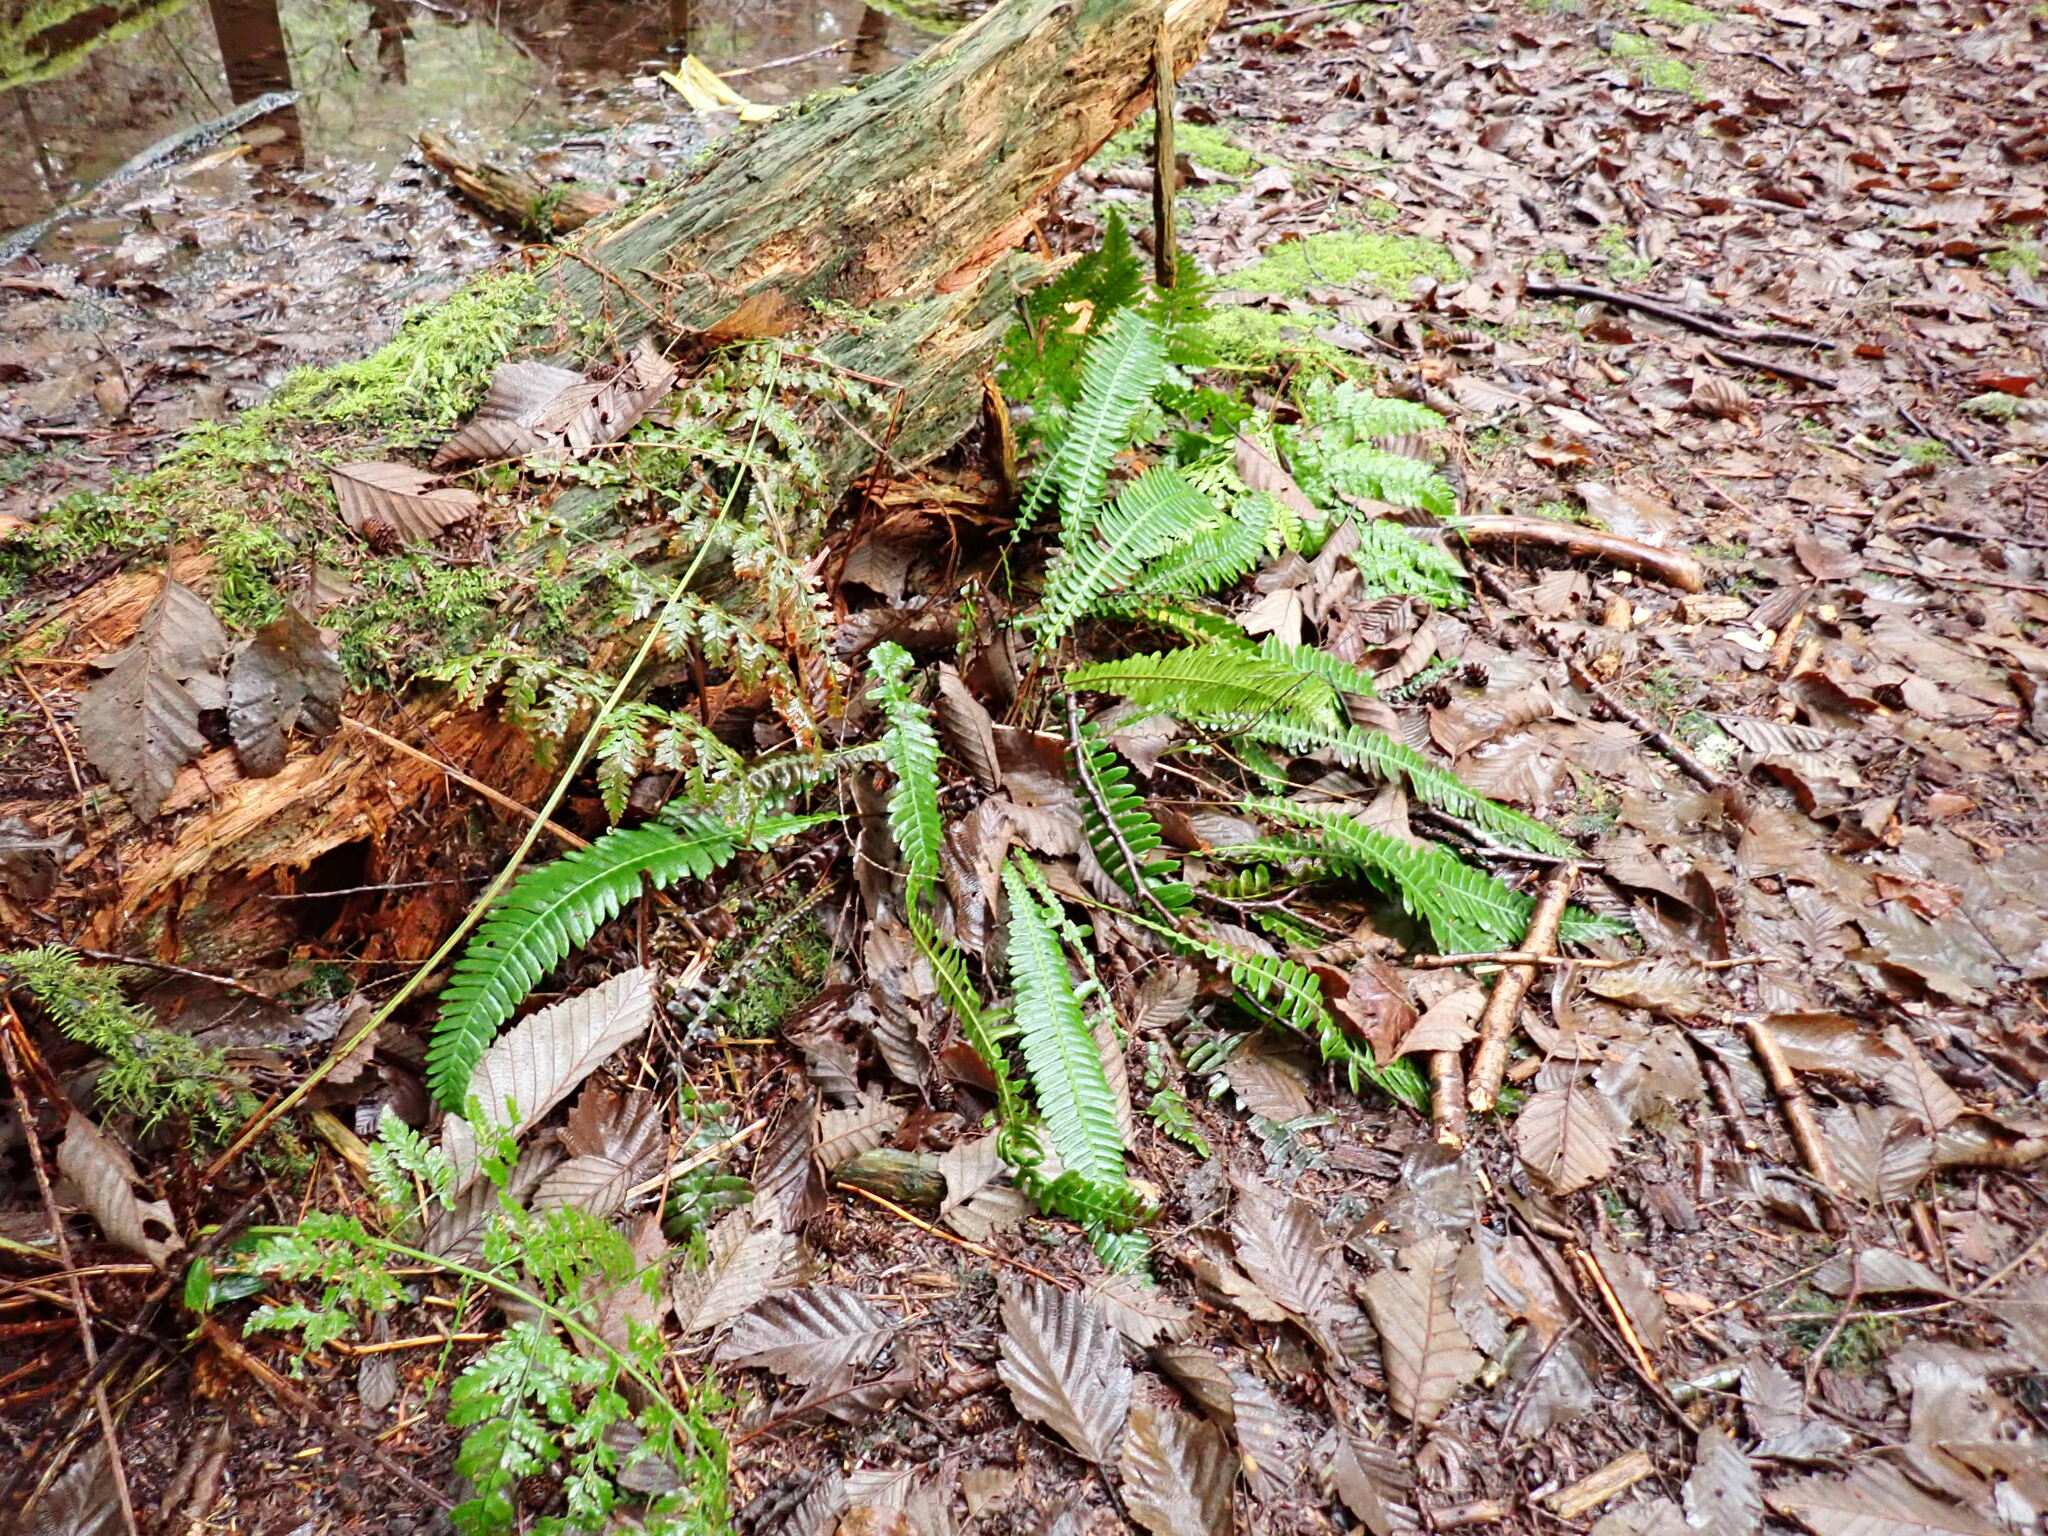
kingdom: Plantae
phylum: Tracheophyta
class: Polypodiopsida
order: Polypodiales
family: Blechnaceae
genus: Struthiopteris
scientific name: Struthiopteris spicant
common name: Deer fern
